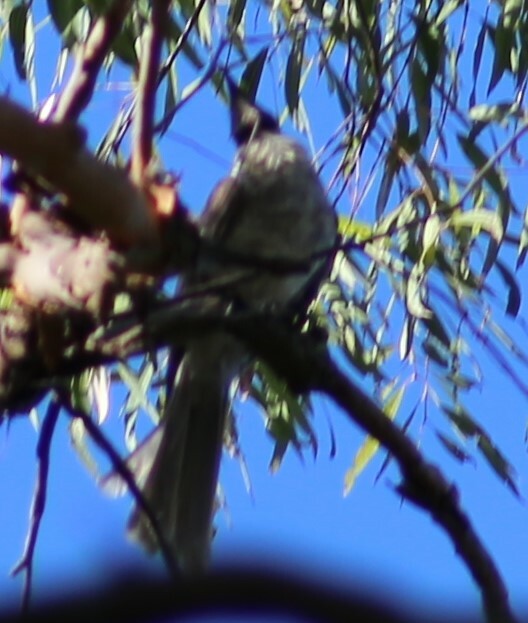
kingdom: Animalia
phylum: Chordata
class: Aves
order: Passeriformes
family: Meliphagidae
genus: Philemon
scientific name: Philemon corniculatus
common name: Noisy friarbird
